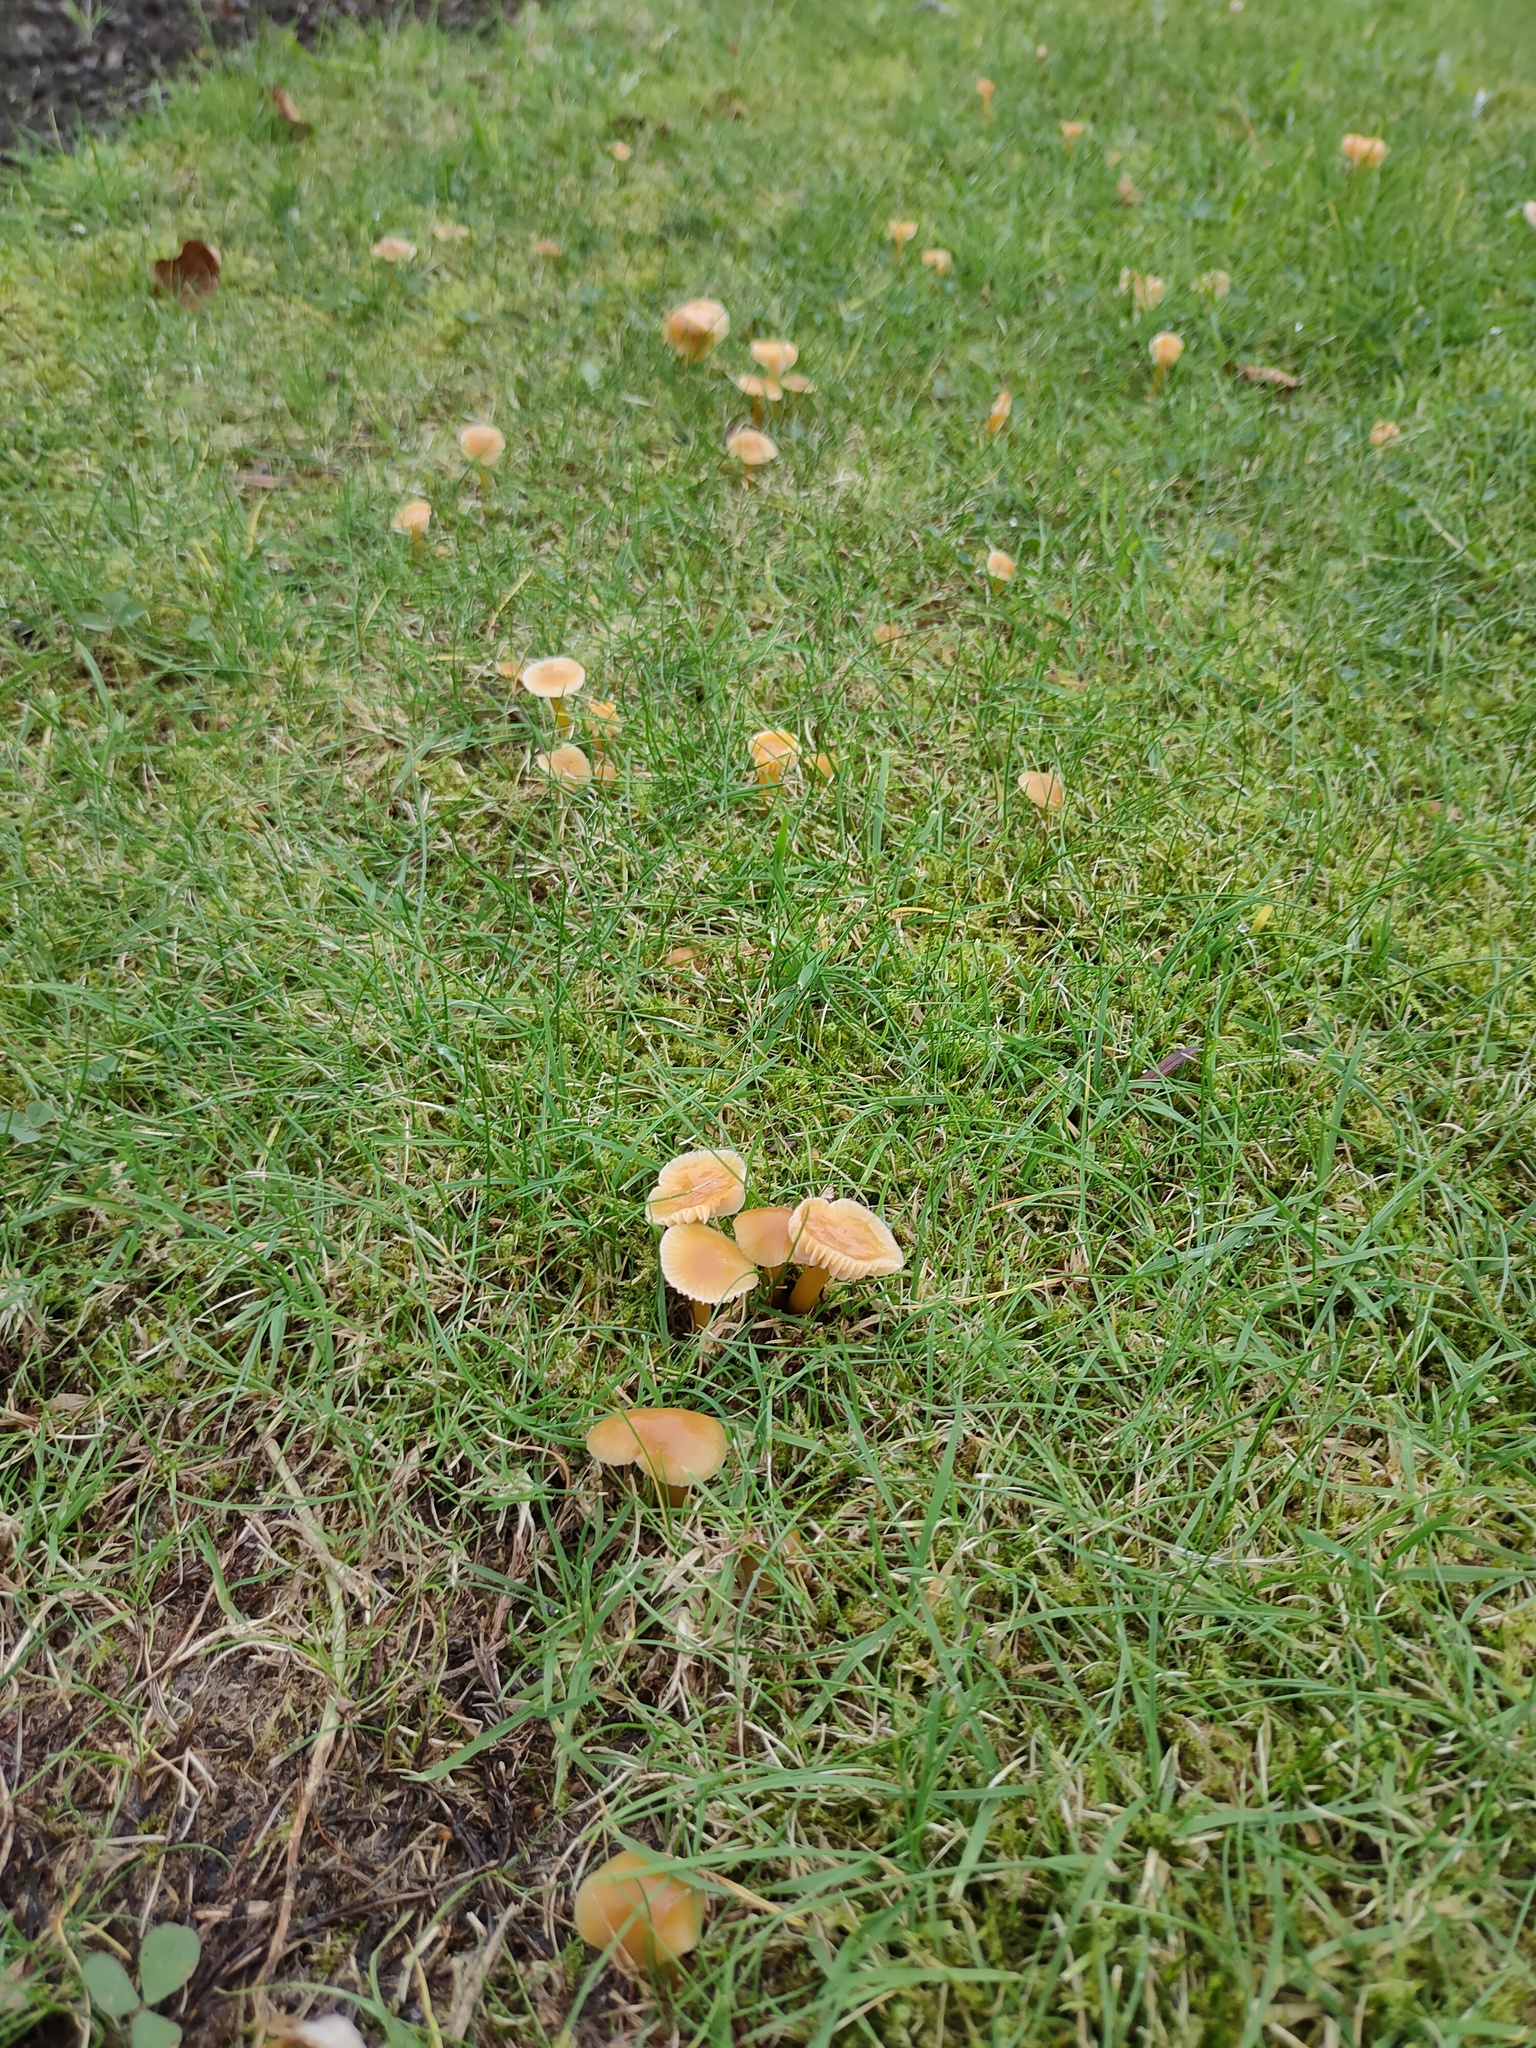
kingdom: Fungi
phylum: Basidiomycota
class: Agaricomycetes
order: Agaricales
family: Hygrophoraceae
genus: Gliophorus
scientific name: Gliophorus laetus
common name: Heath waxcap
